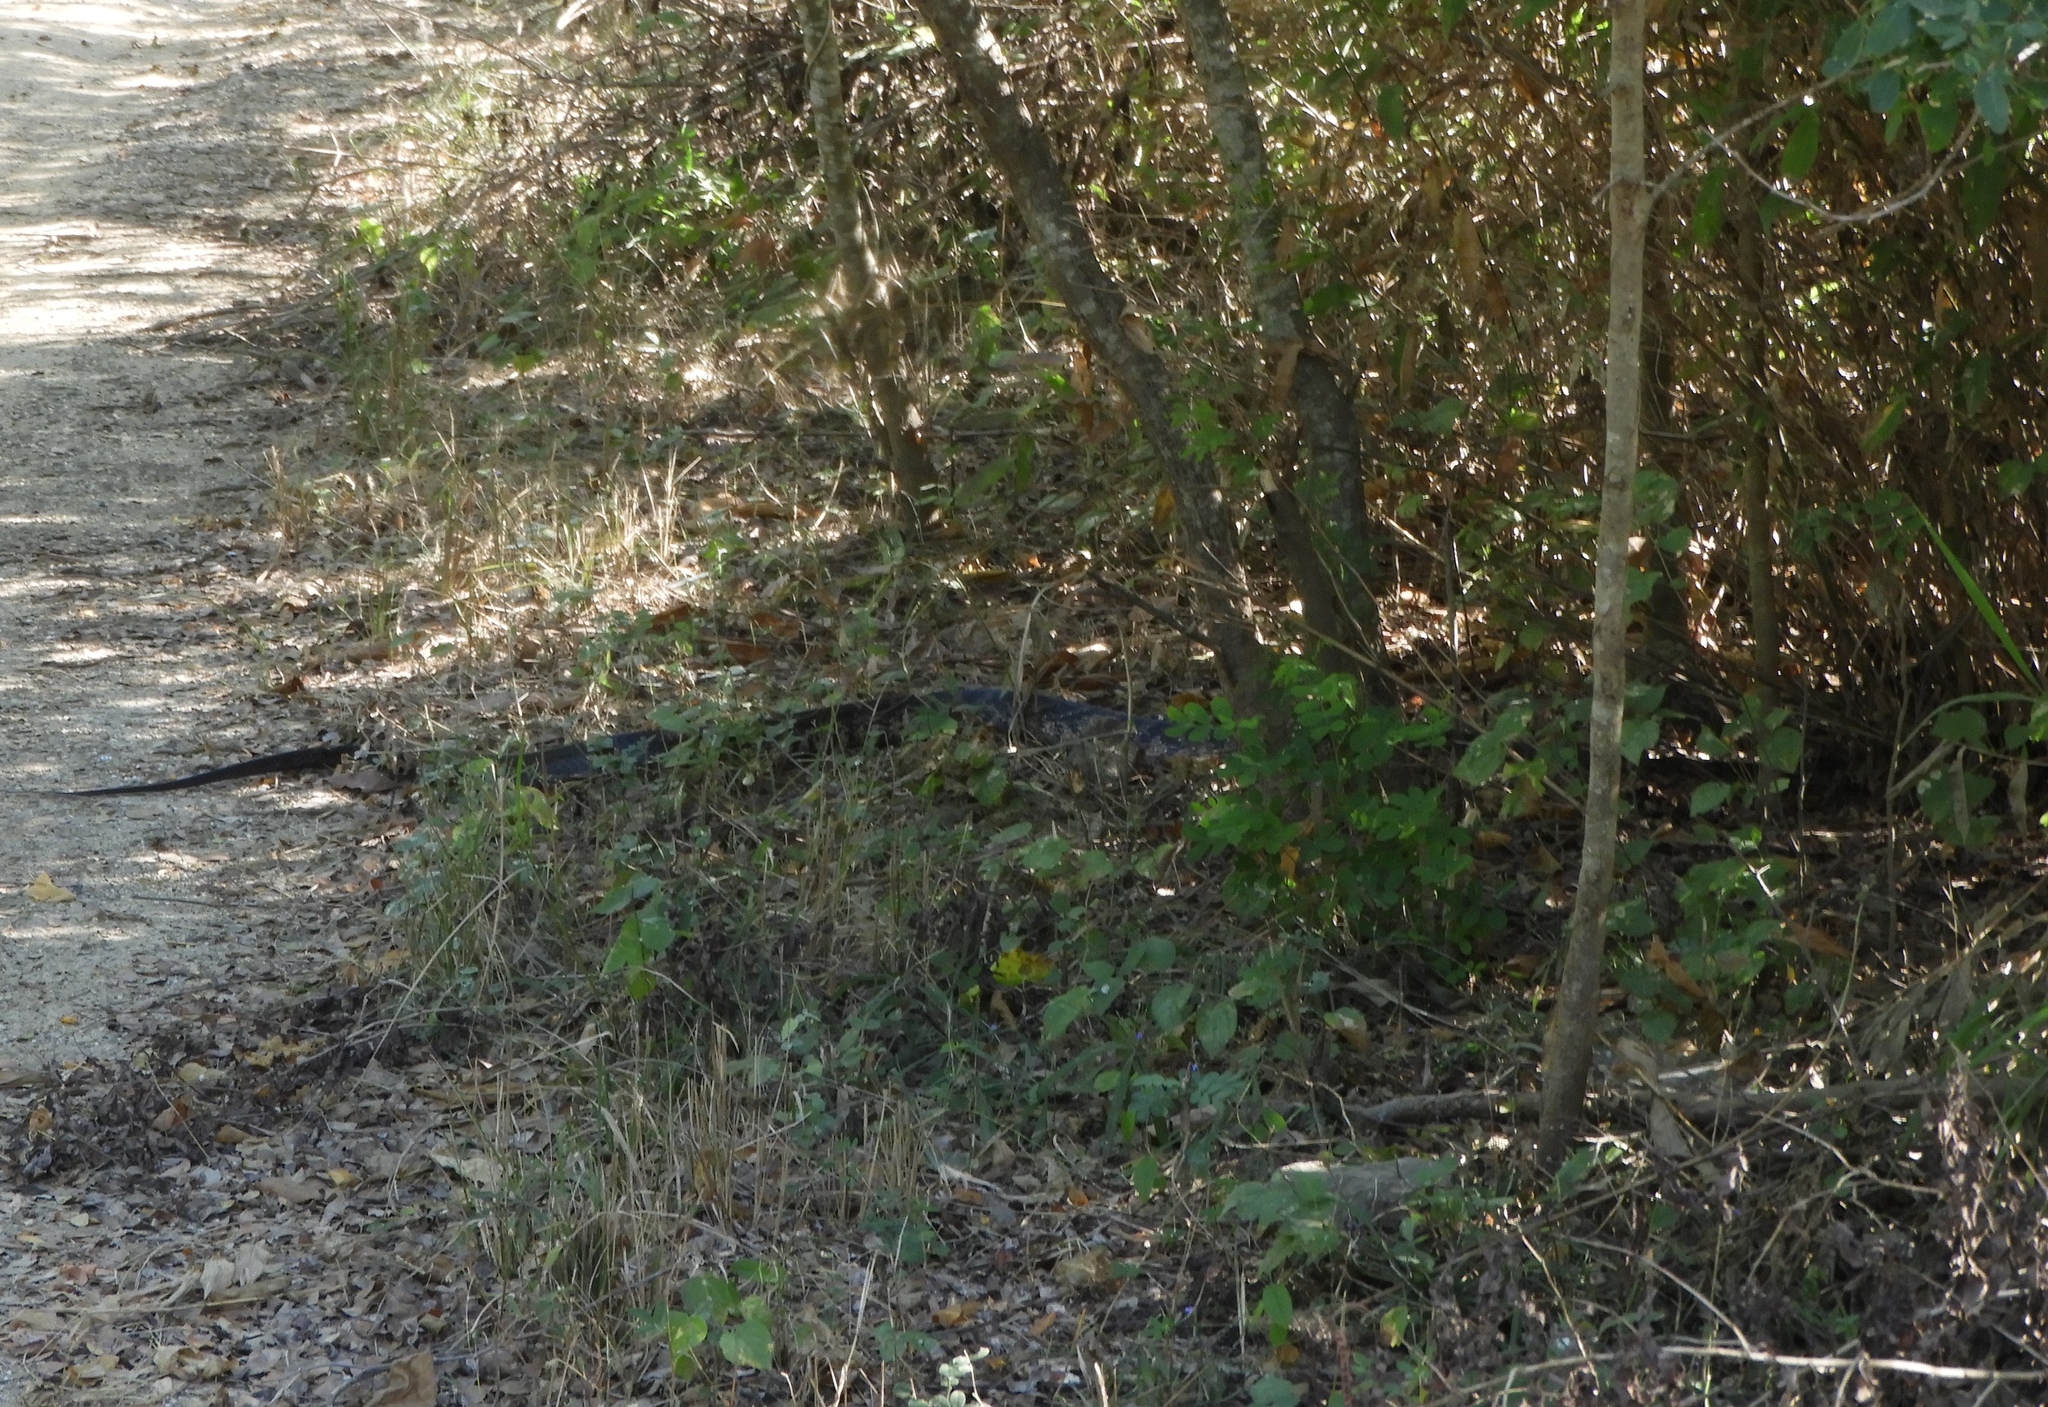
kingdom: Animalia
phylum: Chordata
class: Squamata
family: Colubridae
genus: Drymarchon
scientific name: Drymarchon melanurus
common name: Central american indigo snake
